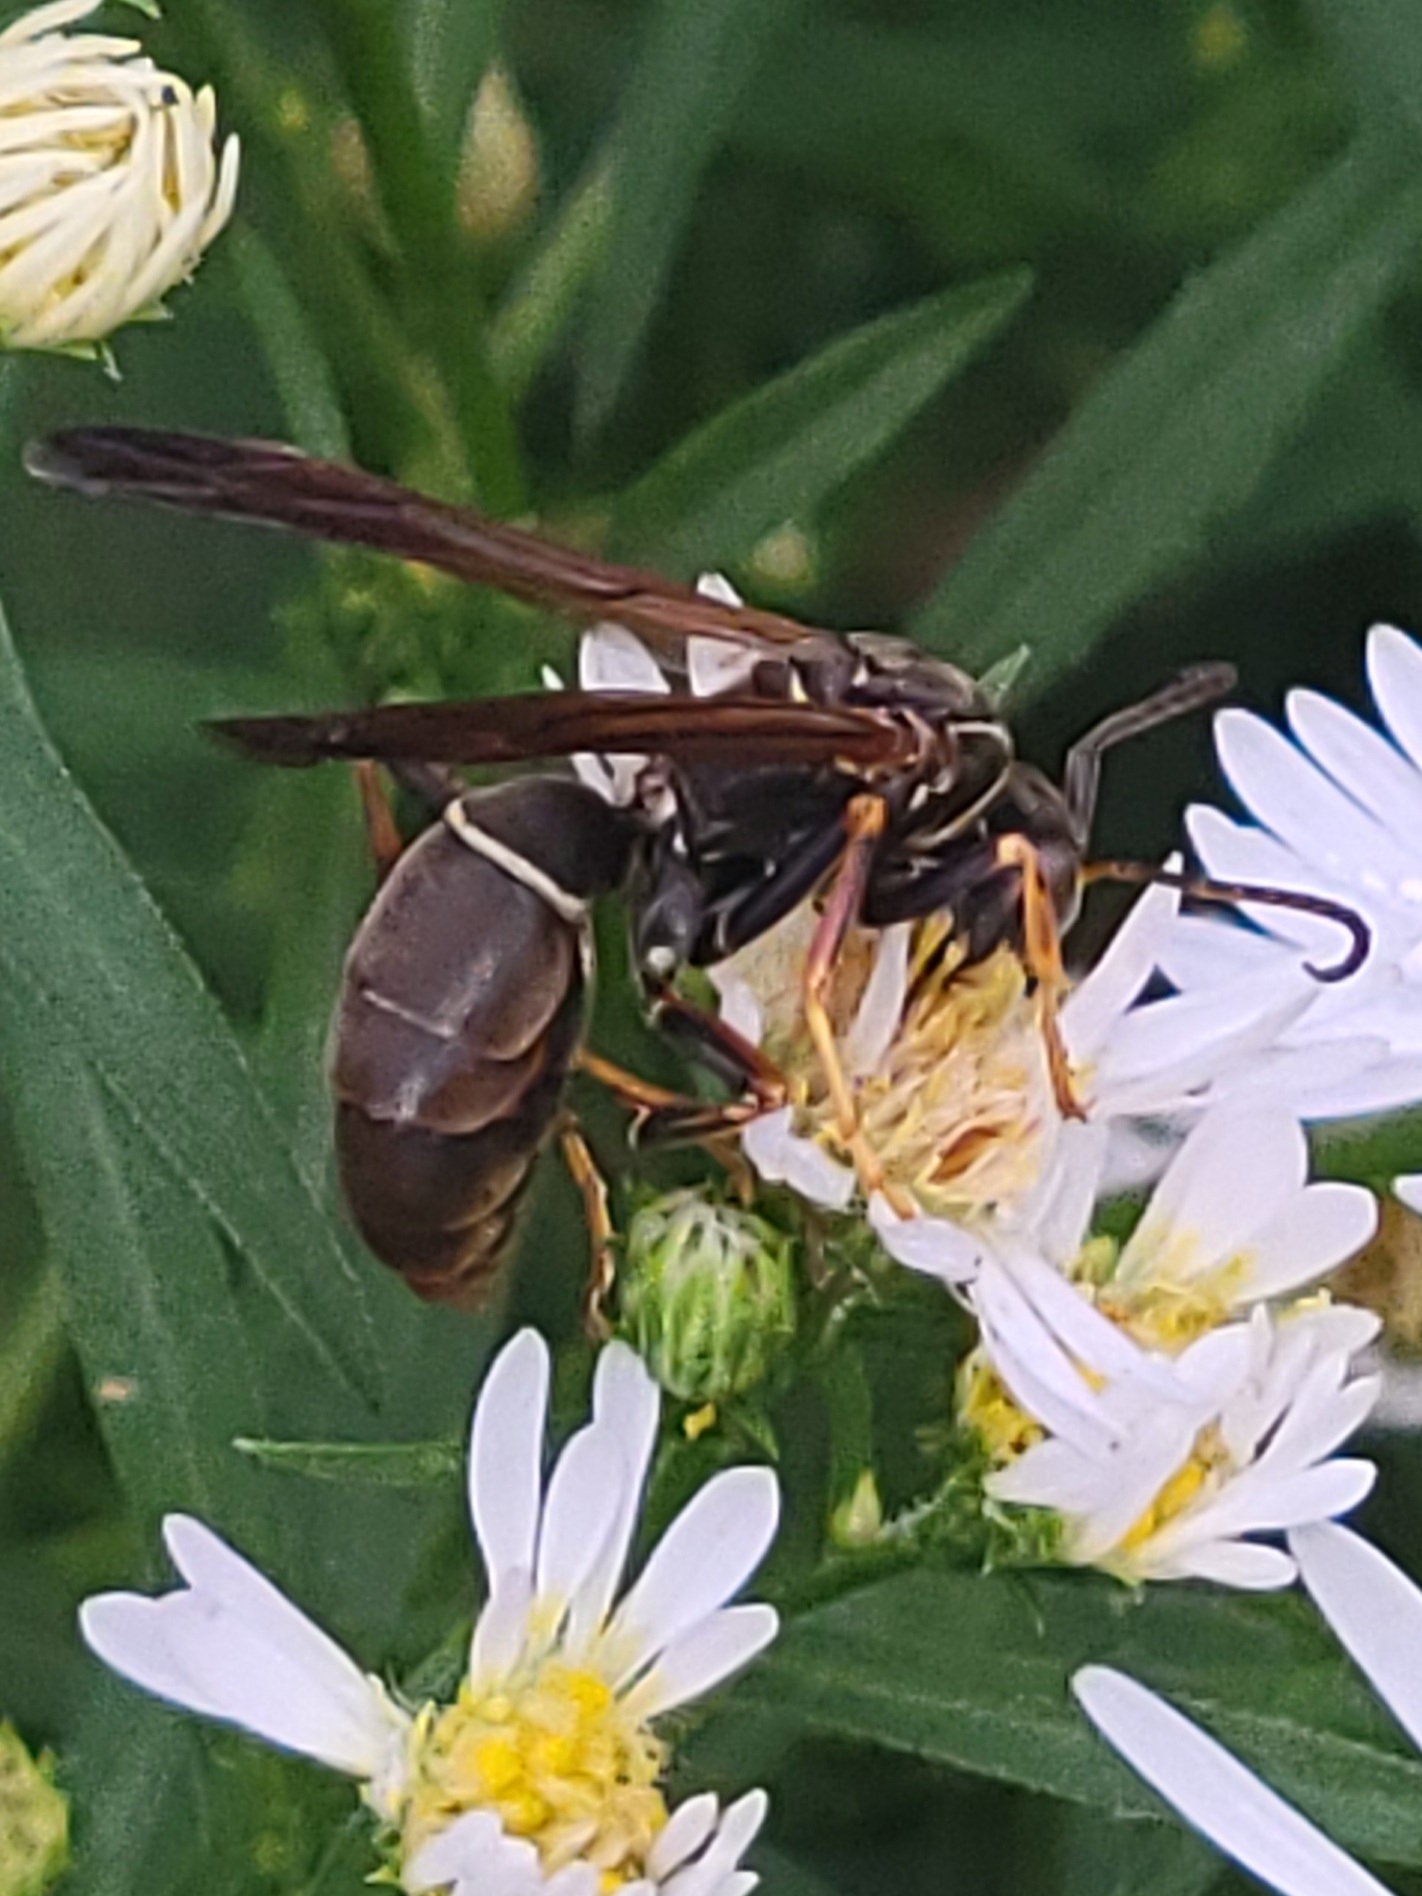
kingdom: Animalia
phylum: Arthropoda
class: Insecta
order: Hymenoptera
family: Eumenidae
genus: Polistes
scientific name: Polistes fuscatus
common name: Dark paper wasp
